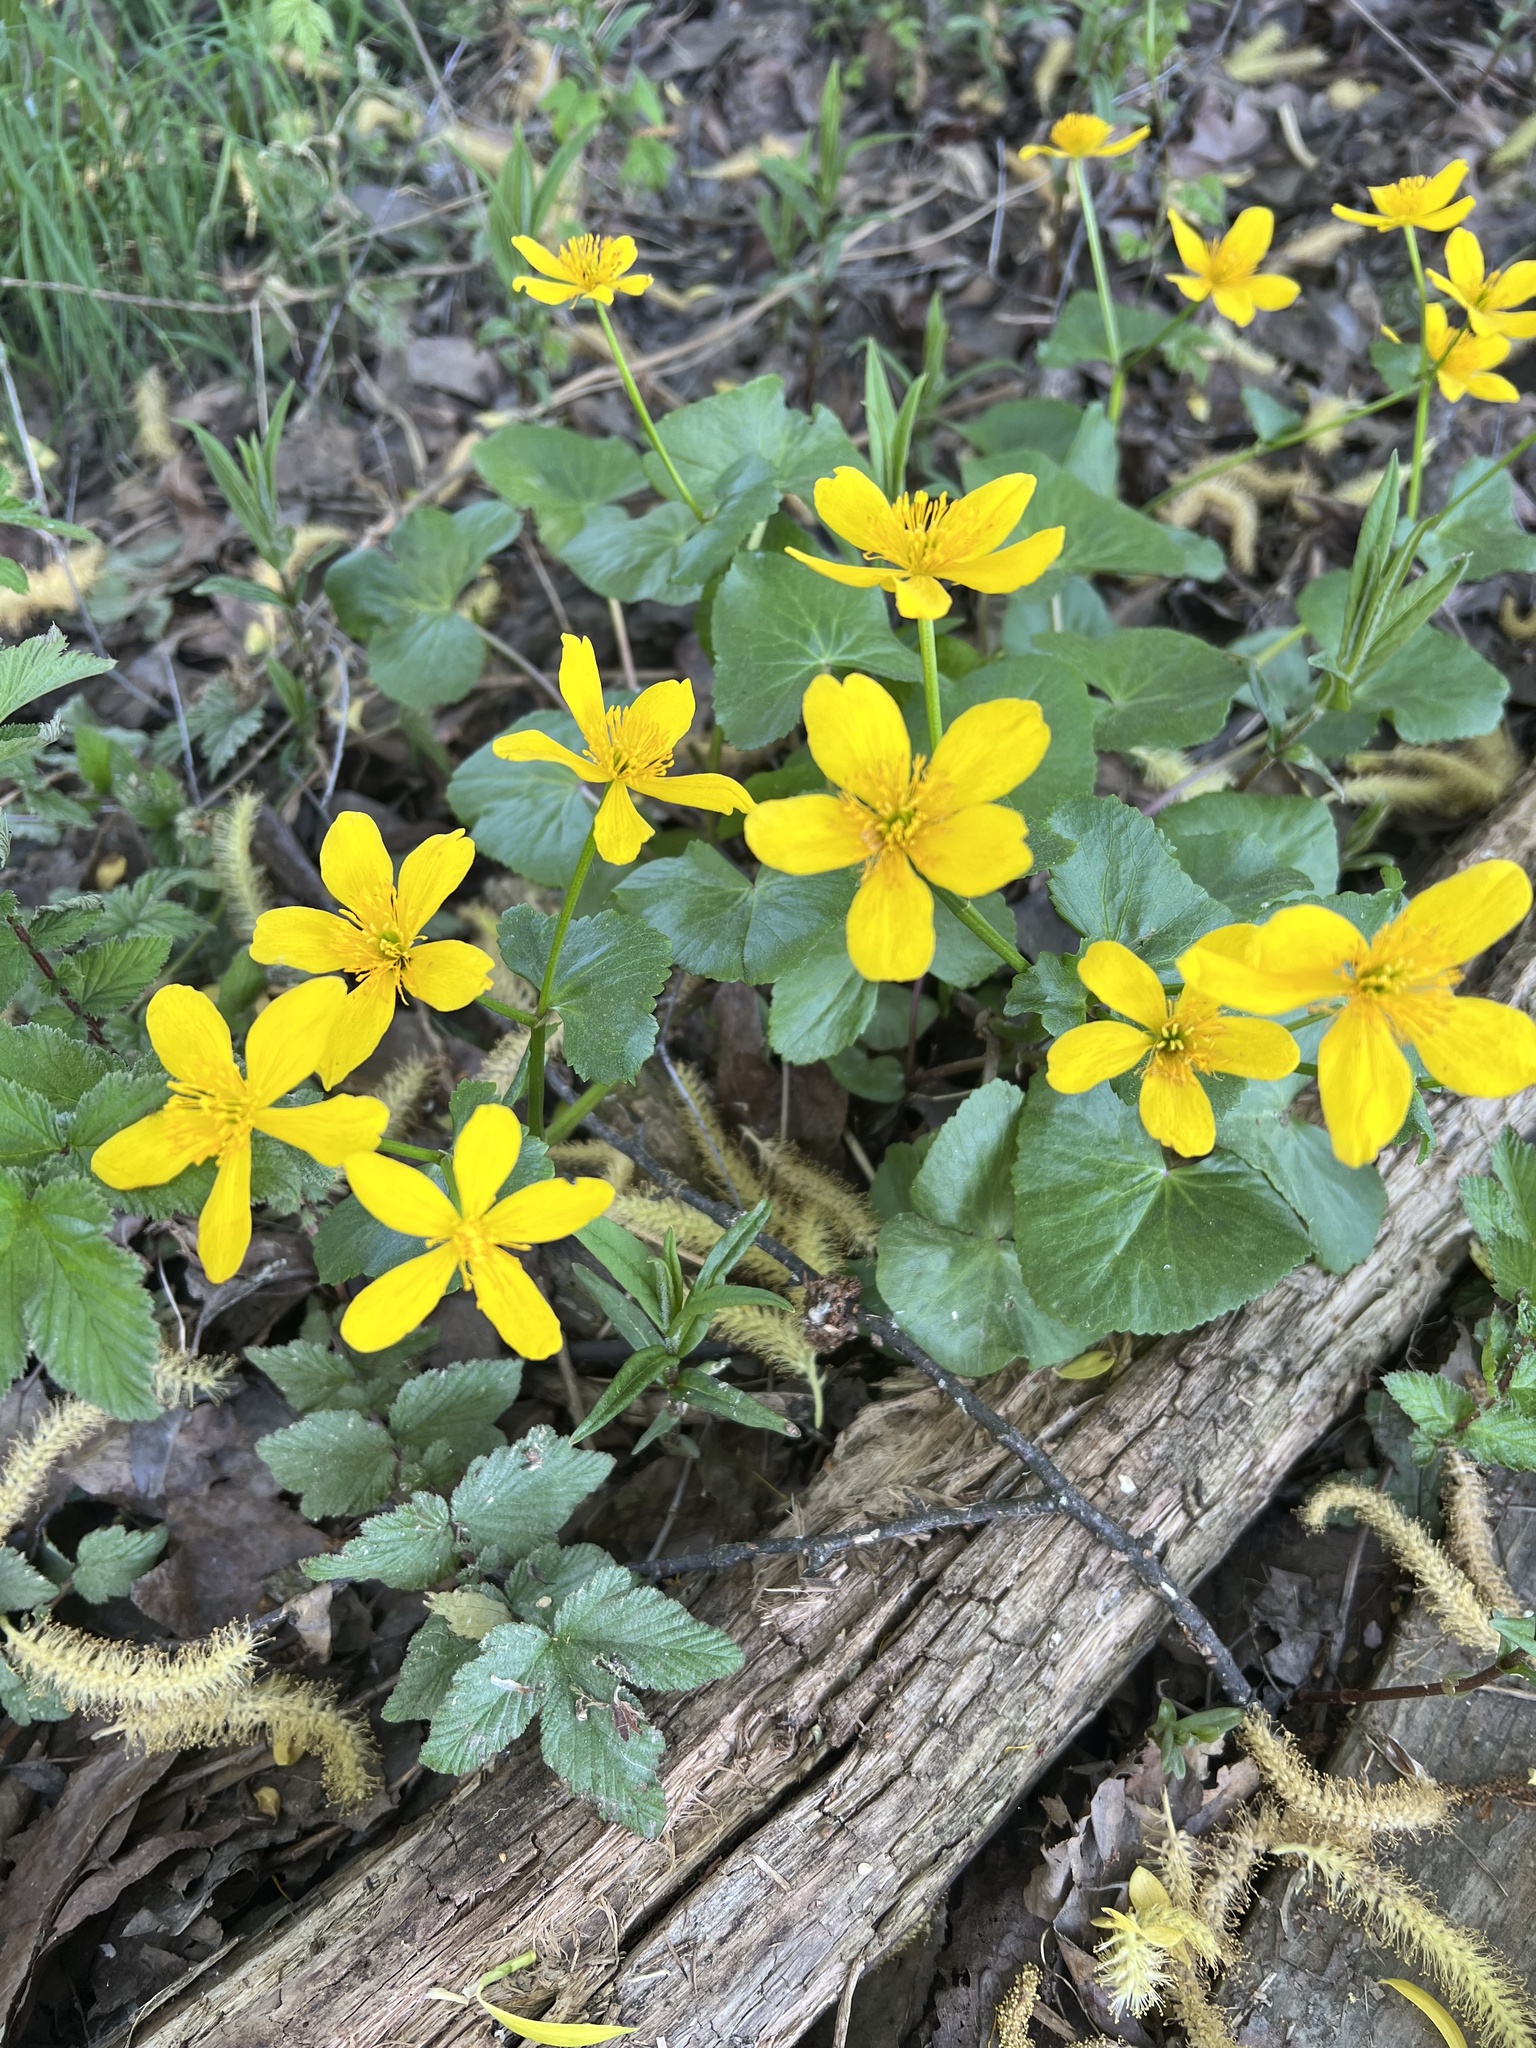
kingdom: Plantae
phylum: Tracheophyta
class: Magnoliopsida
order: Ranunculales
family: Ranunculaceae
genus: Caltha
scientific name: Caltha palustris
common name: Marsh marigold
